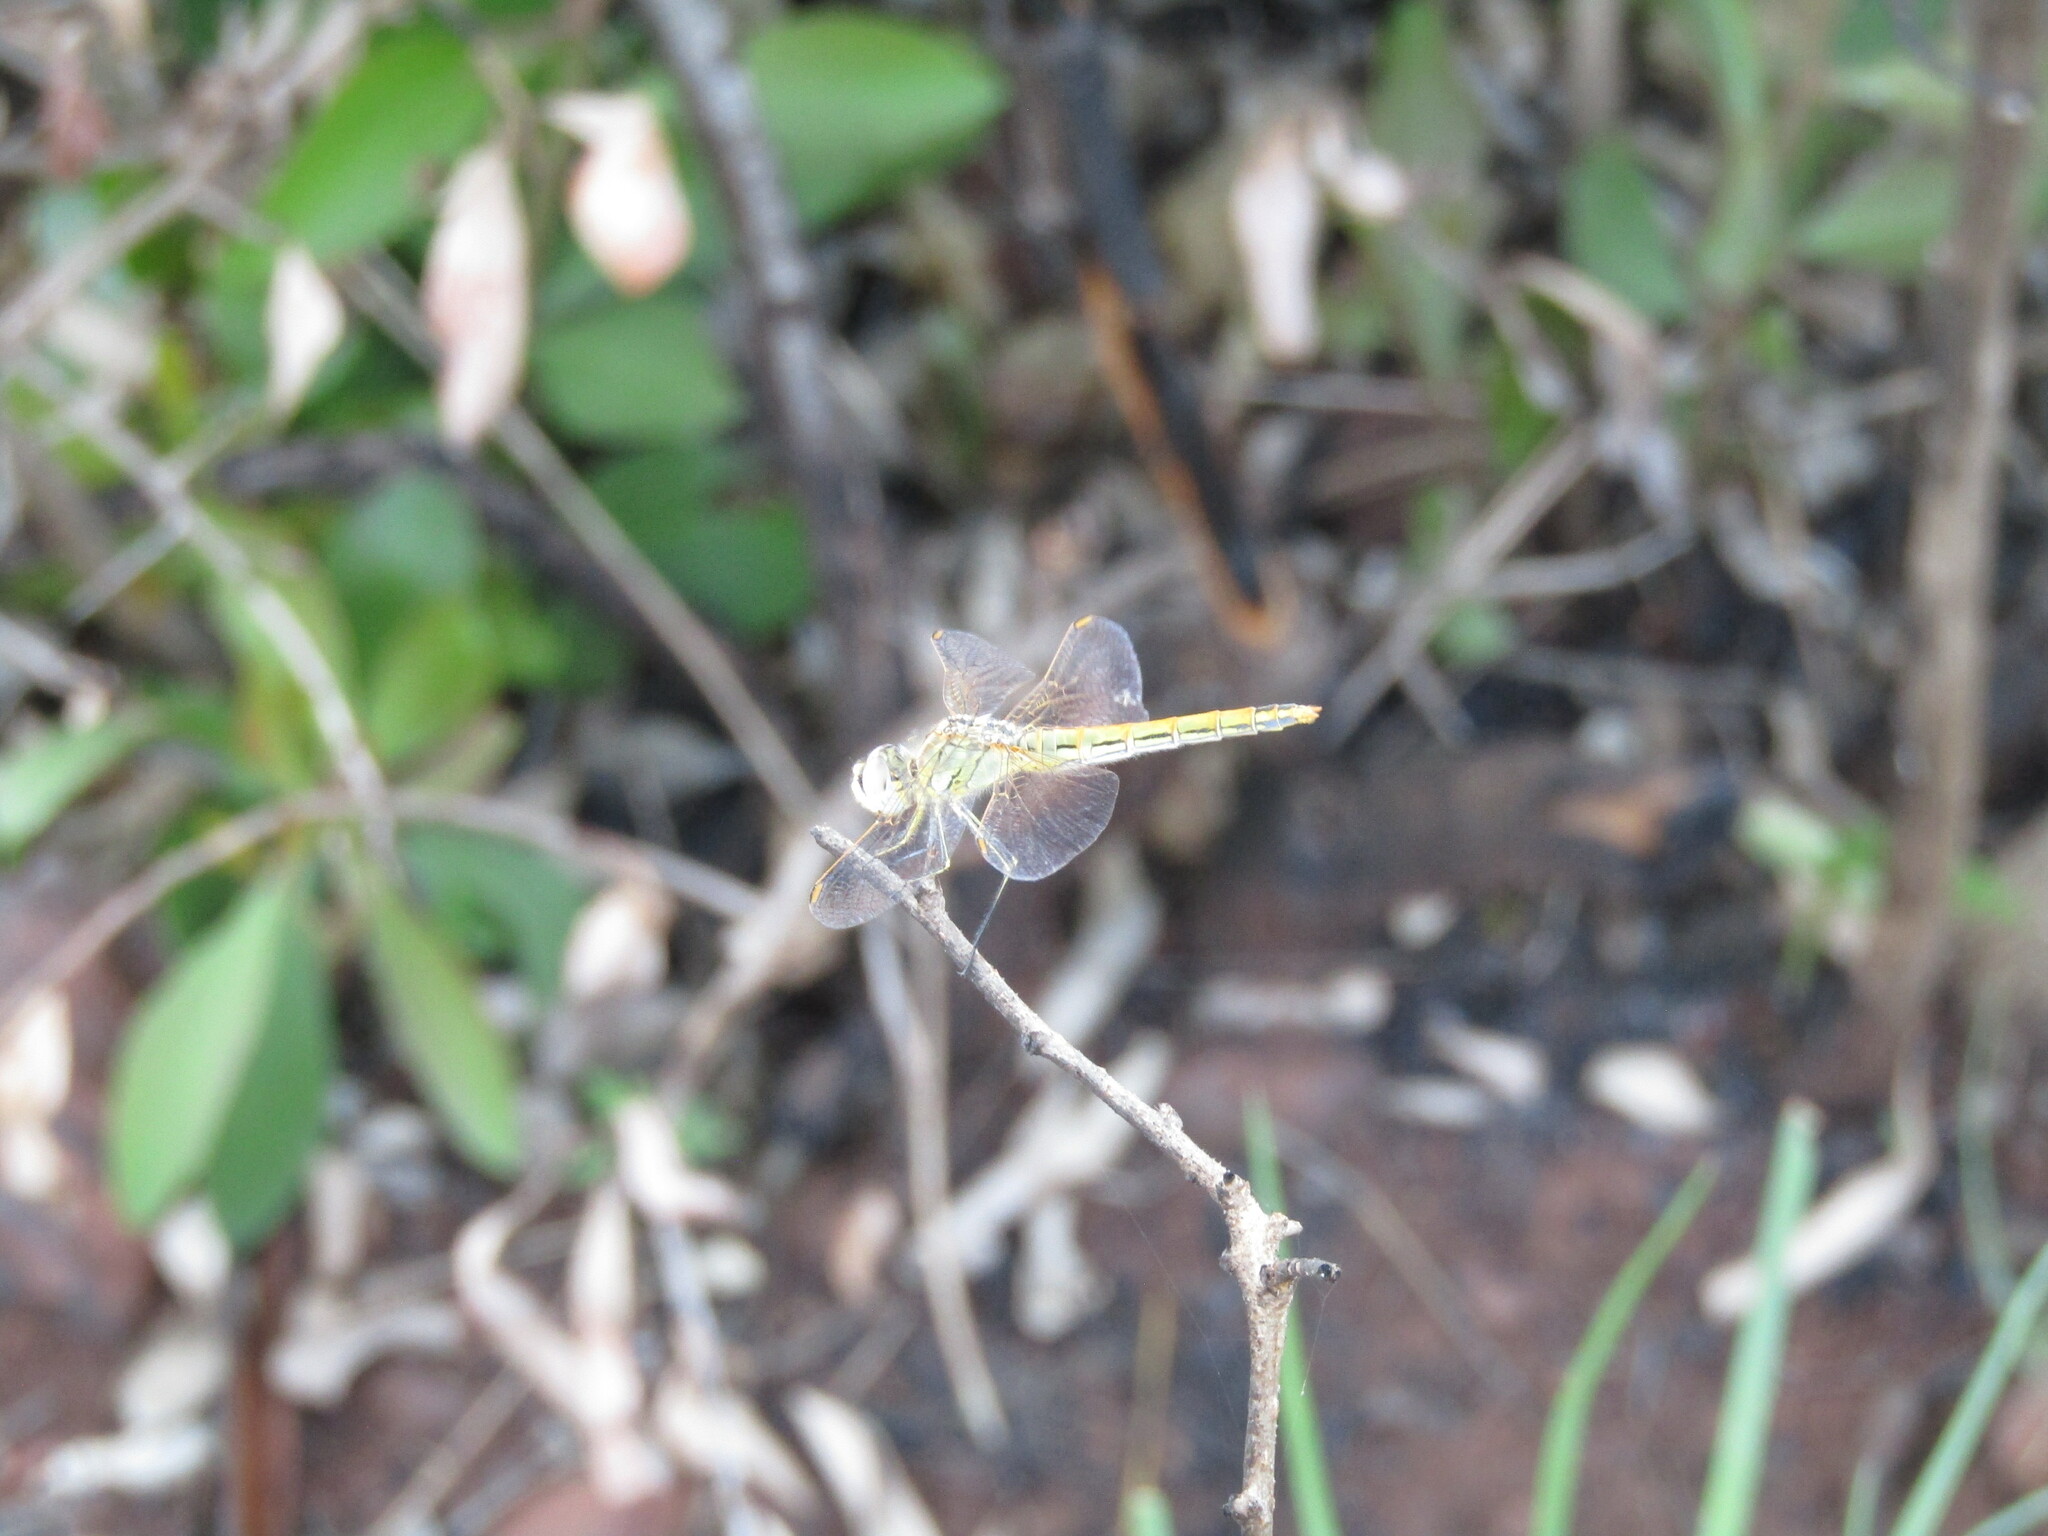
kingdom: Animalia
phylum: Arthropoda
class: Insecta
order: Odonata
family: Libellulidae
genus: Sympetrum
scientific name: Sympetrum fonscolombii
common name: Red-veined darter
